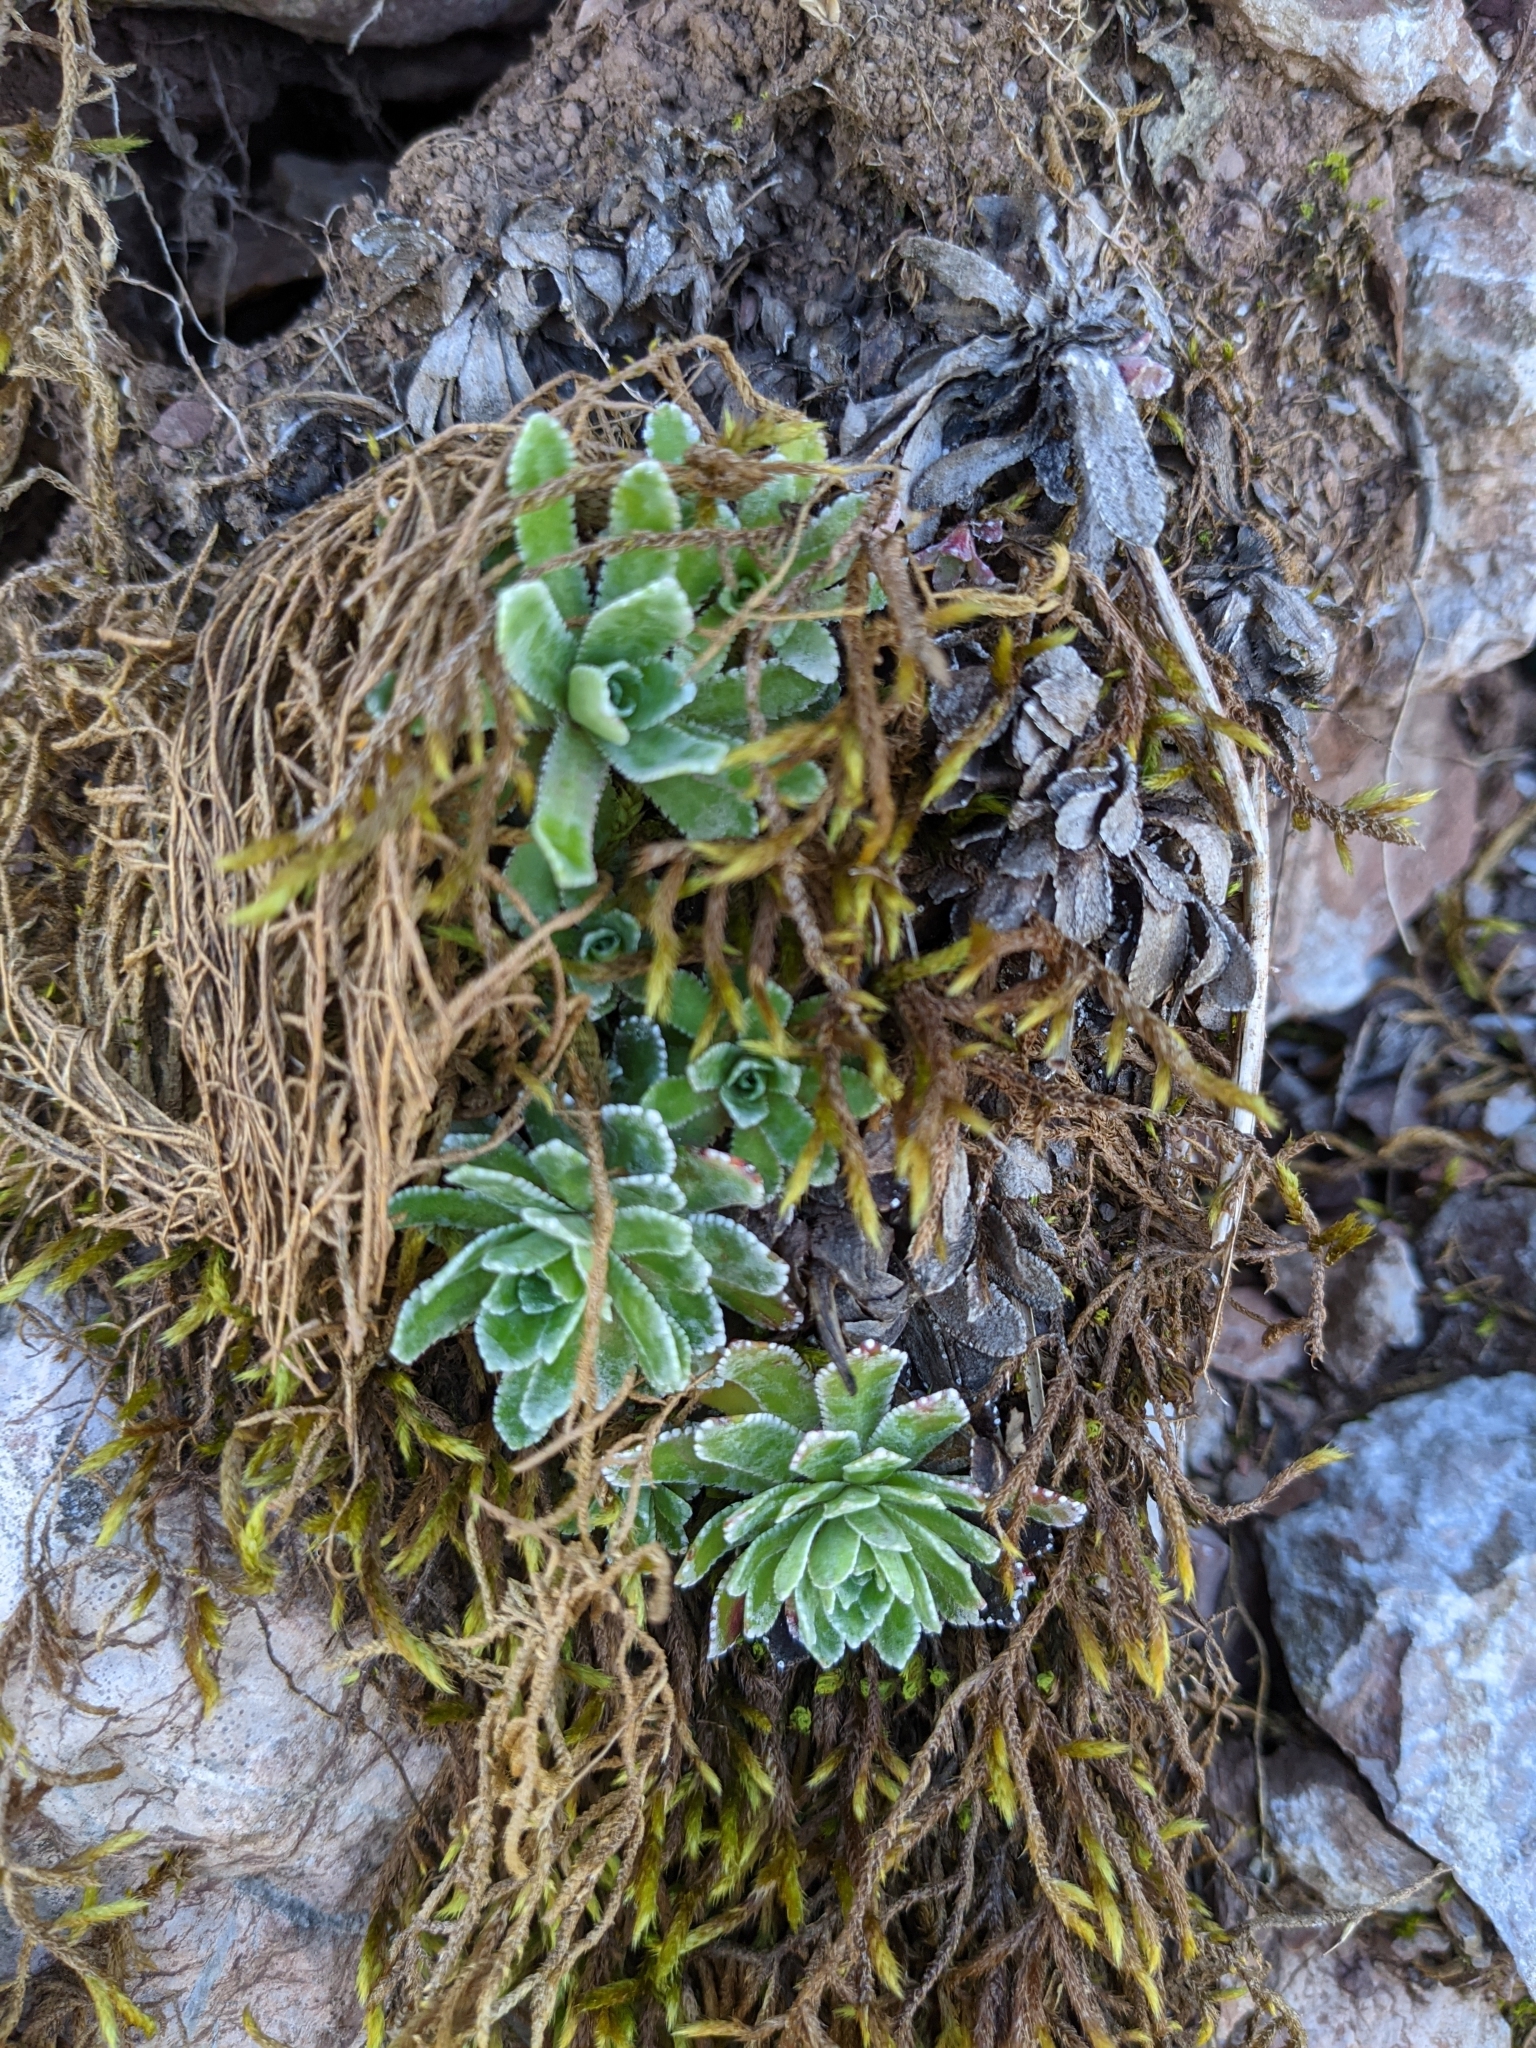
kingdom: Plantae
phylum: Tracheophyta
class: Magnoliopsida
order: Saxifragales
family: Saxifragaceae
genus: Saxifraga
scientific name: Saxifraga paniculata
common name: Livelong saxifrage
